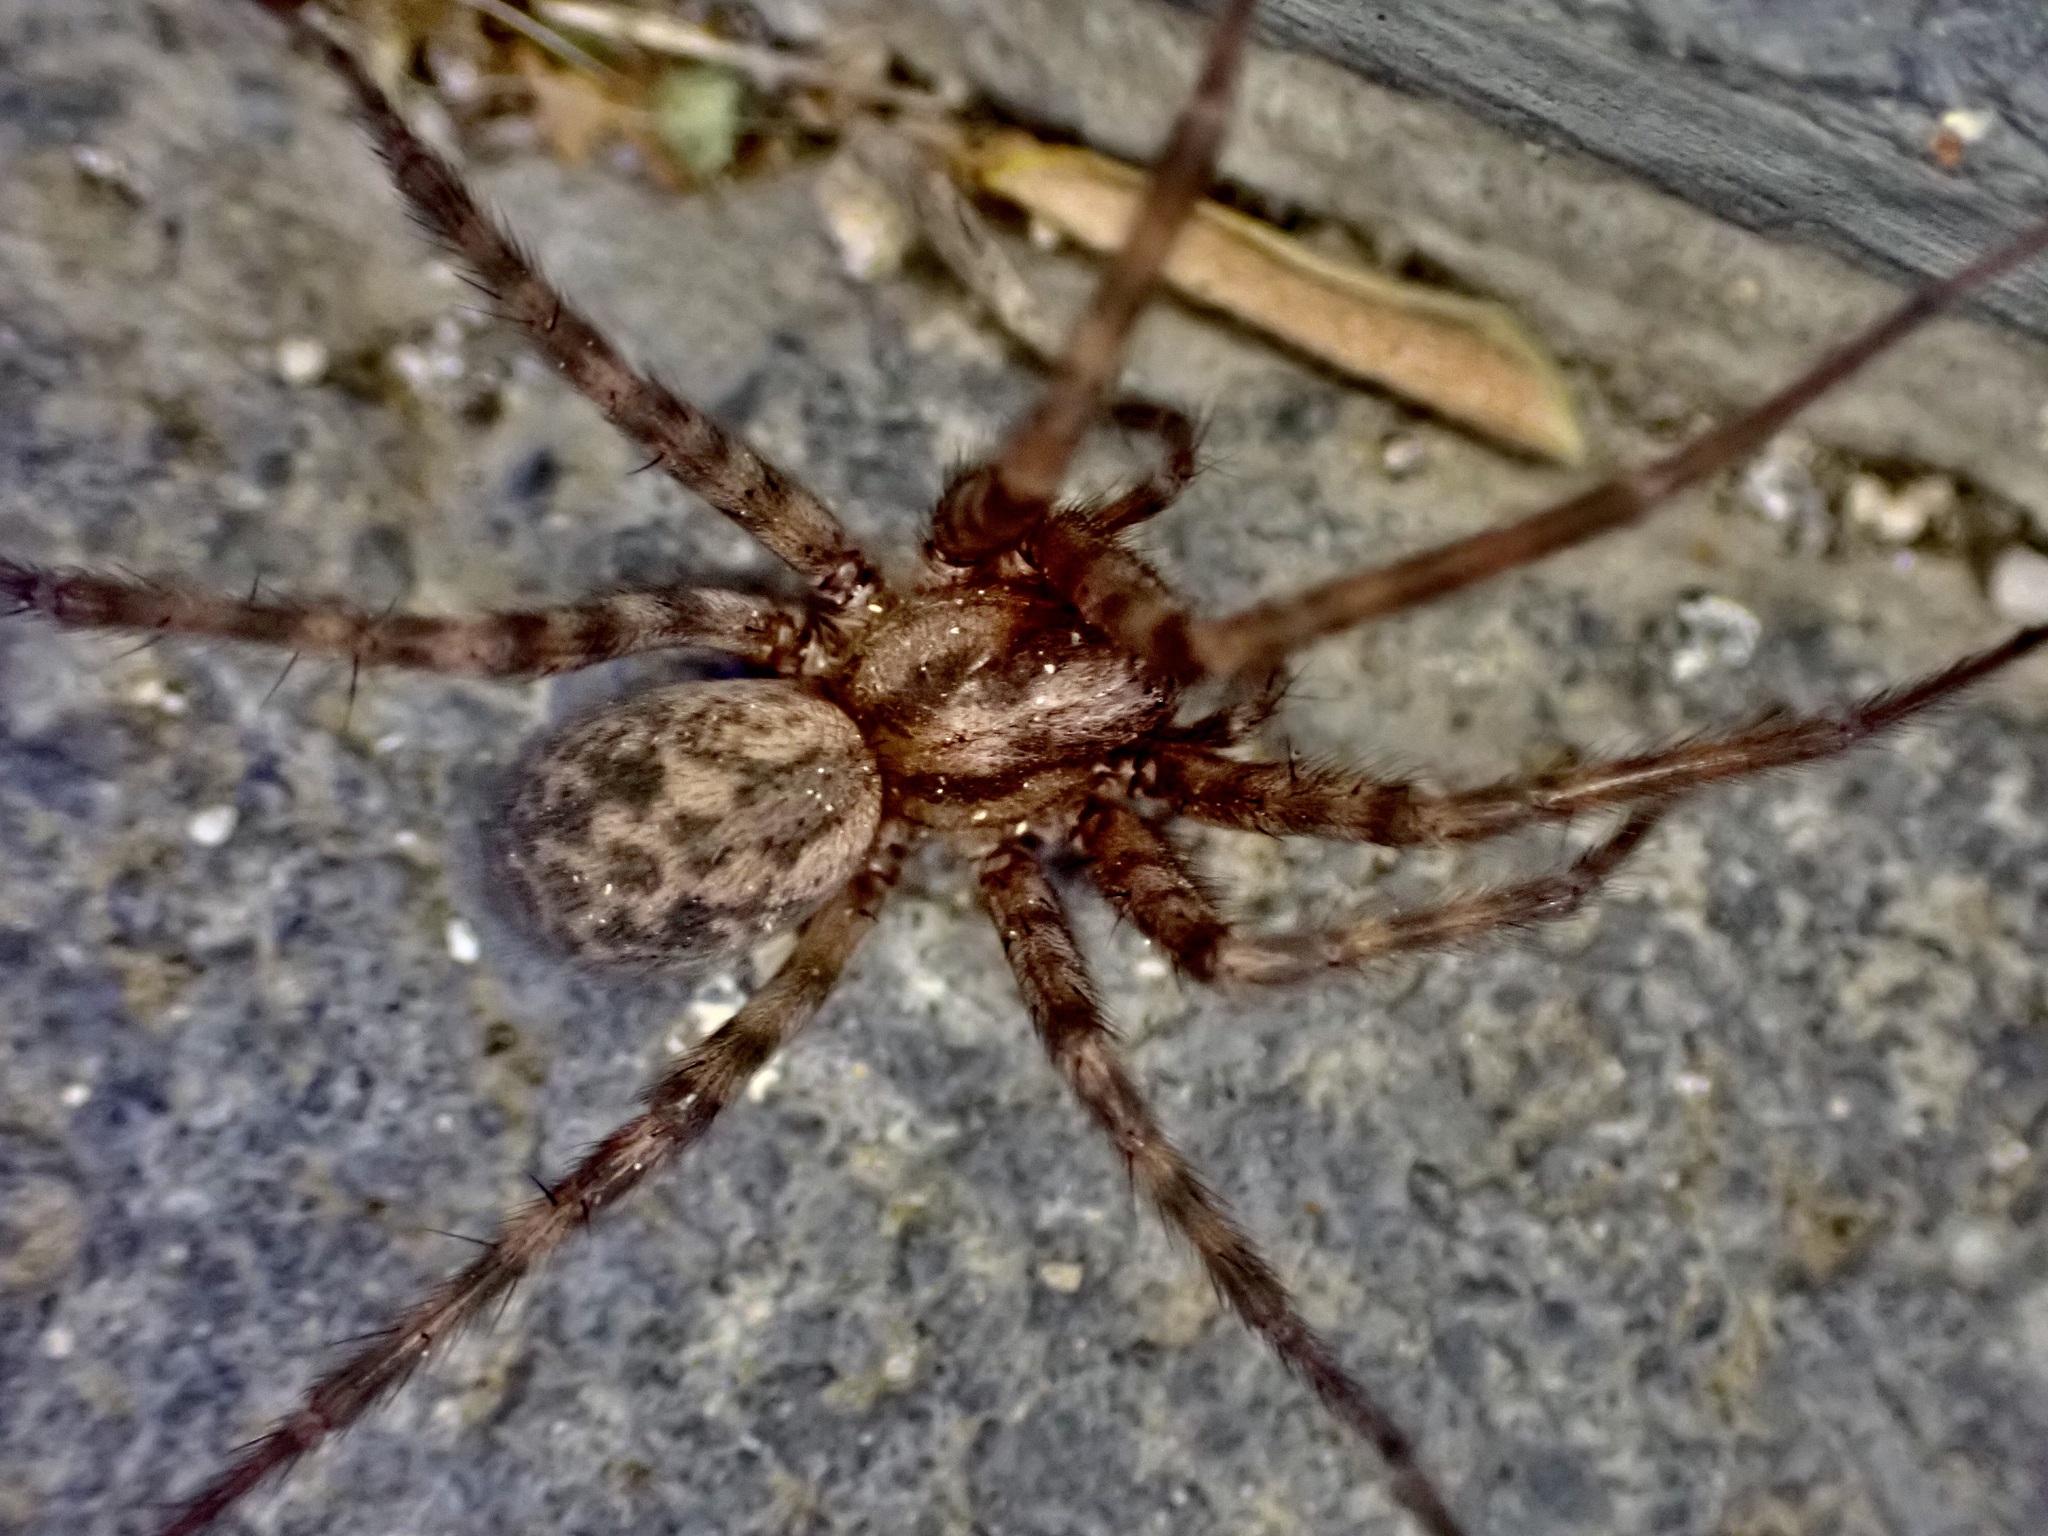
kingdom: Animalia
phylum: Arthropoda
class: Arachnida
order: Araneae
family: Agelenidae
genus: Tegenaria
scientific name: Tegenaria domestica
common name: Barn funnel weaver
